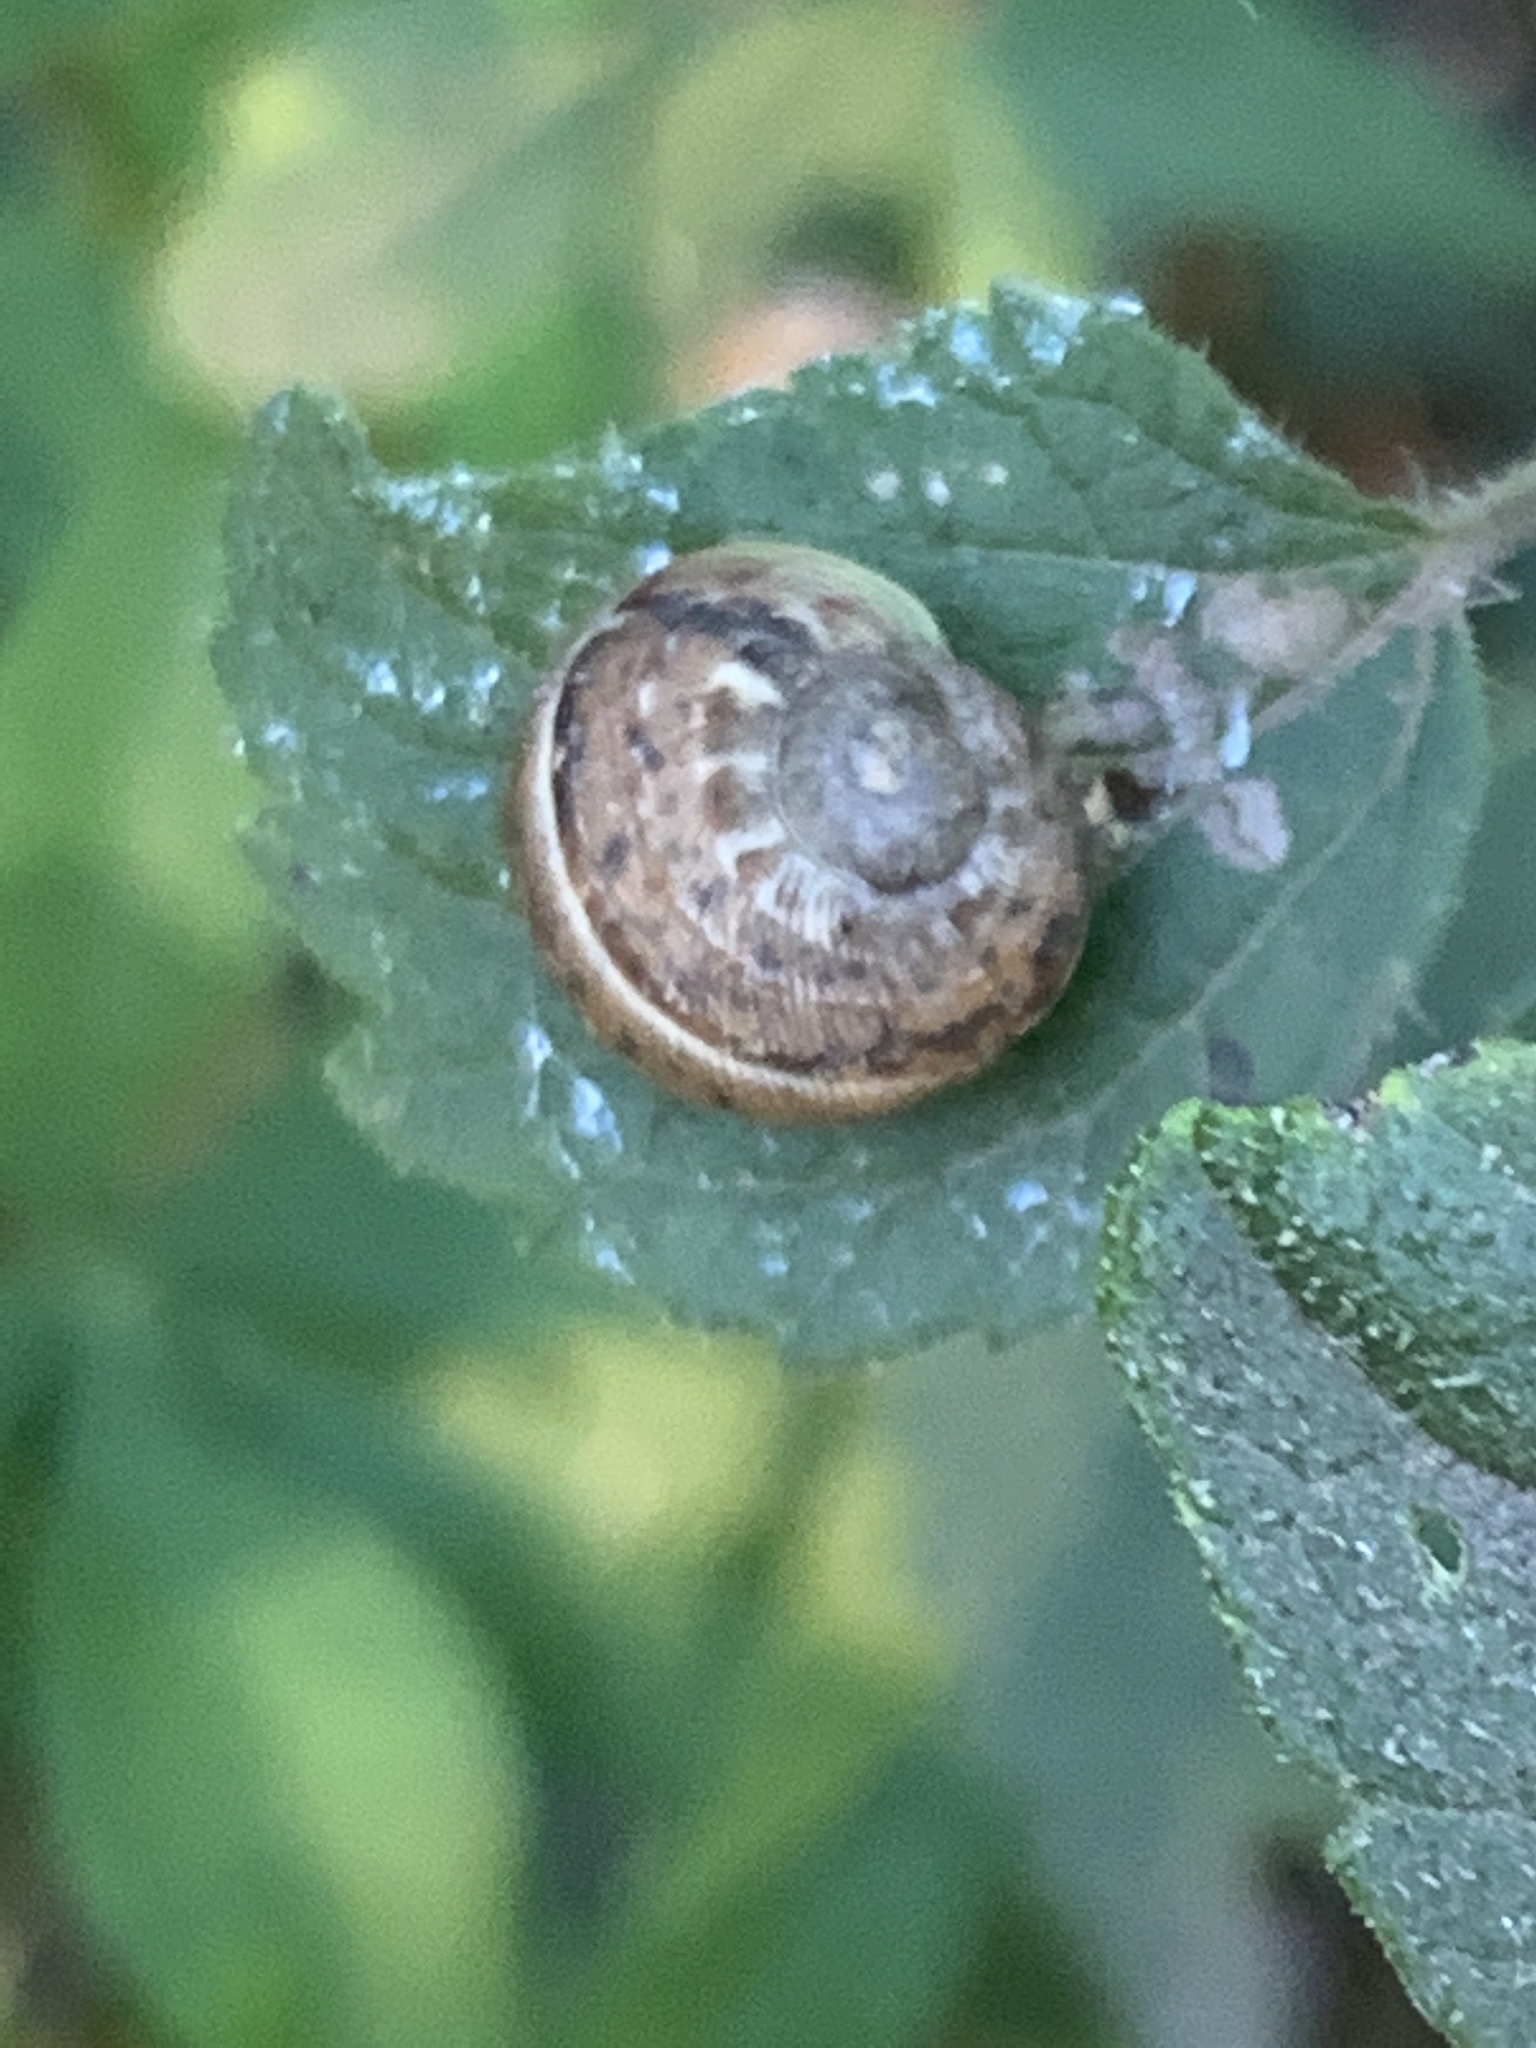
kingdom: Animalia
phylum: Mollusca
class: Gastropoda
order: Stylommatophora
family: Helicidae
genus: Cornu
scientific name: Cornu aspersum
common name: Brown garden snail
